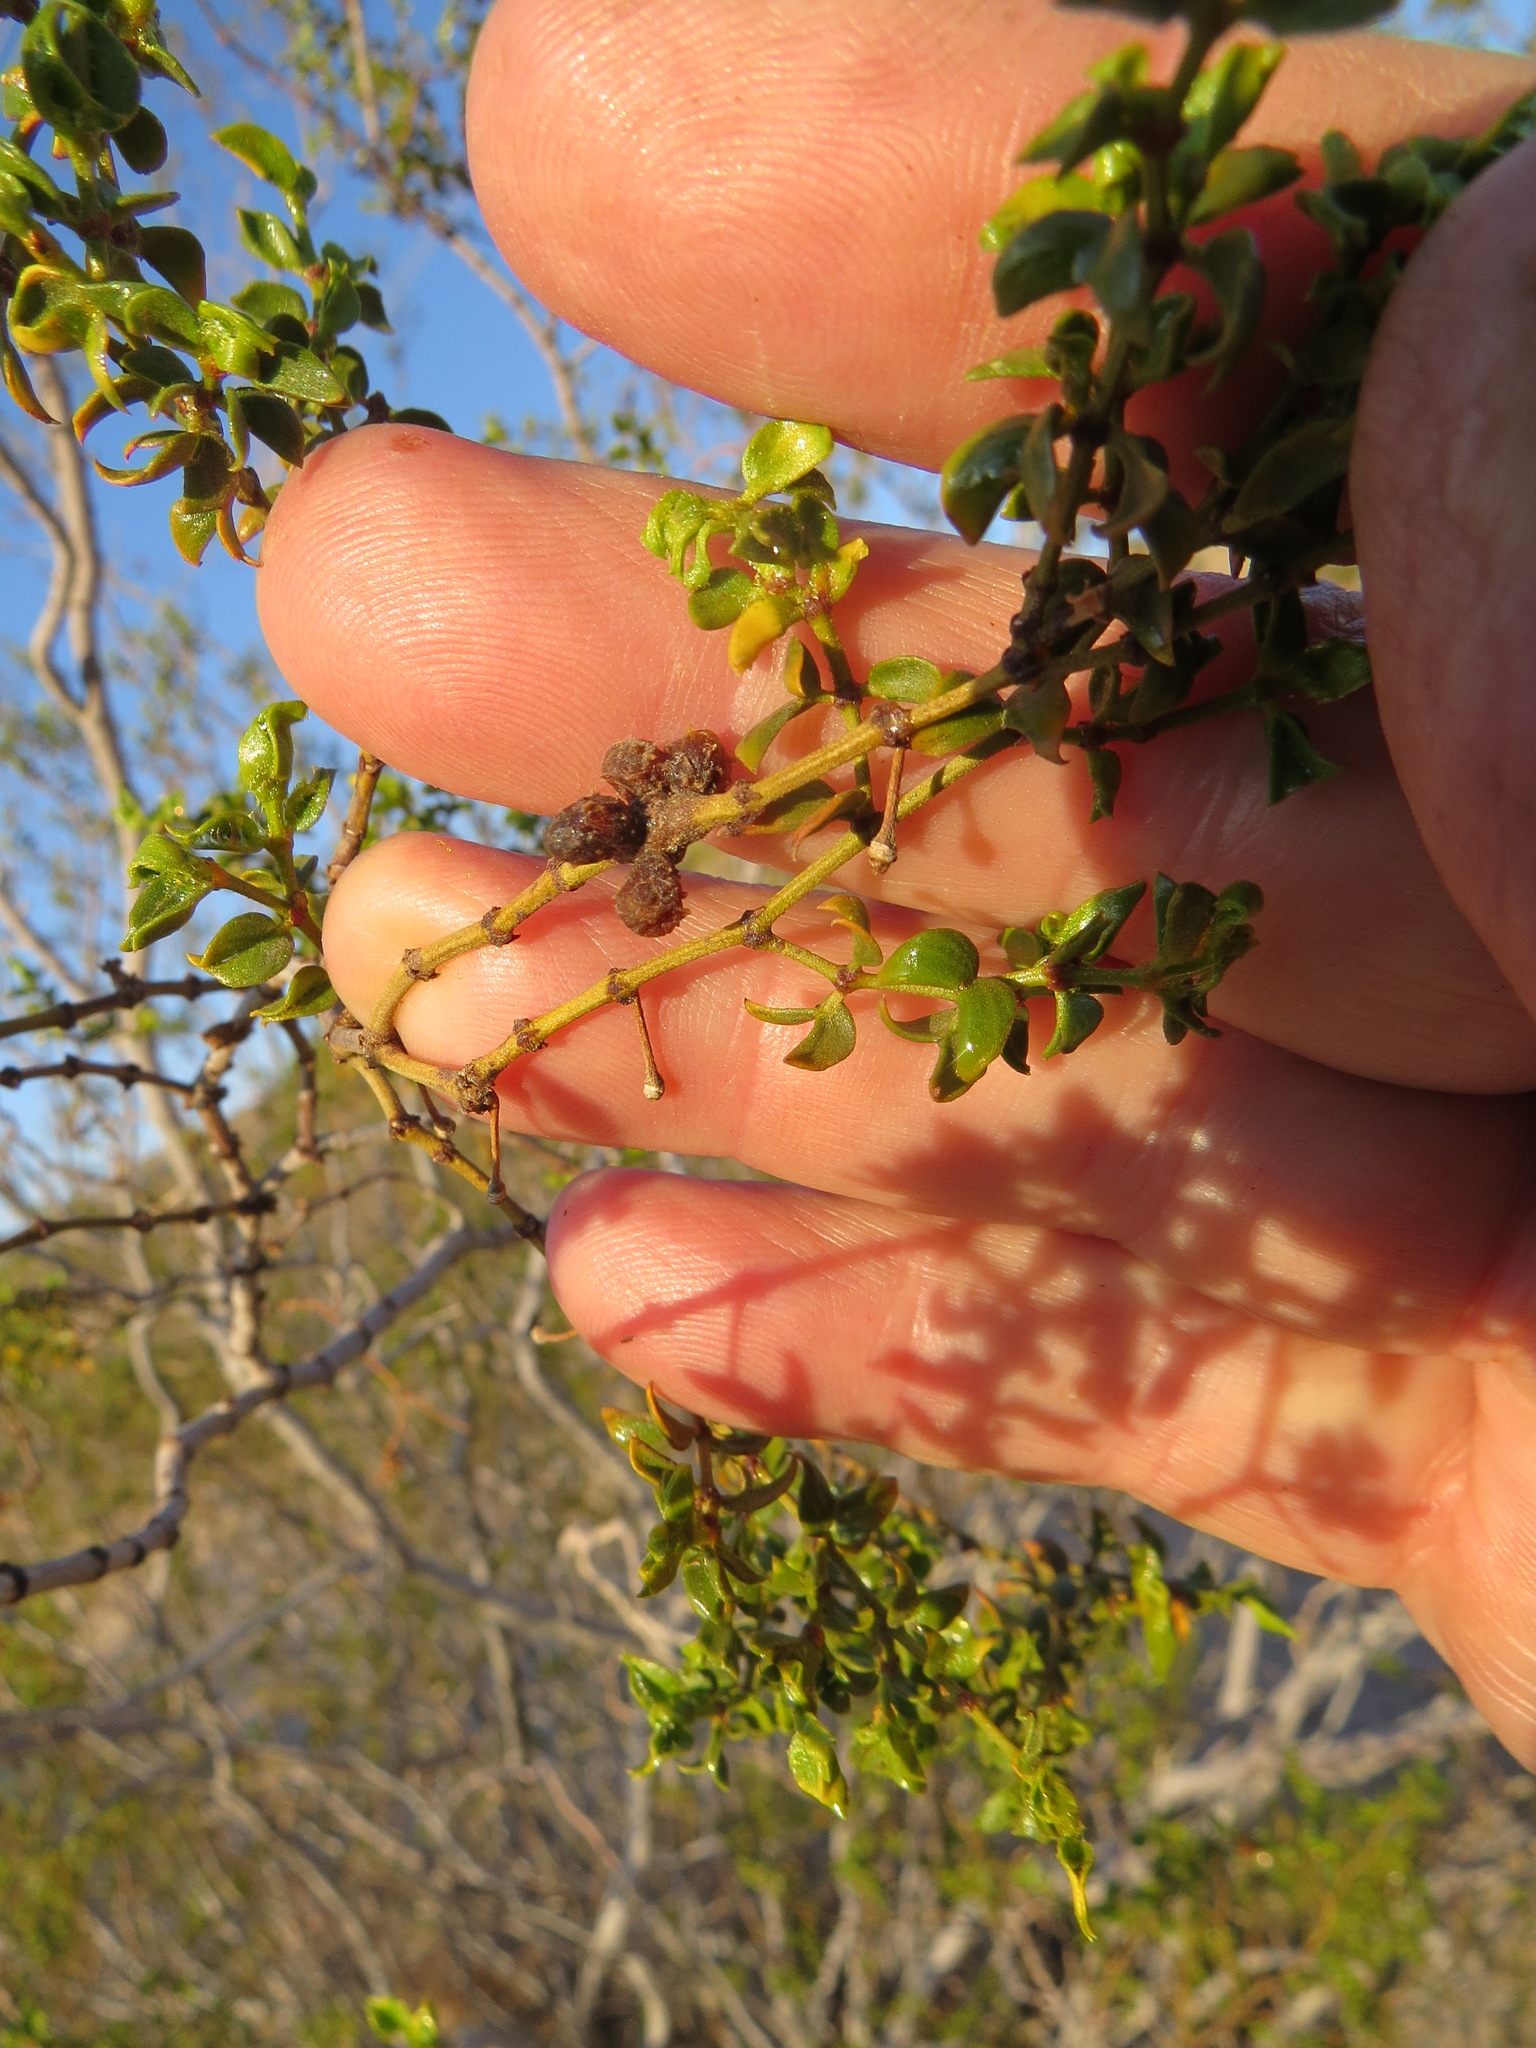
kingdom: Animalia
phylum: Arthropoda
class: Insecta
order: Diptera
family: Cecidomyiidae
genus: Asphondylia
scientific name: Asphondylia resinosa
